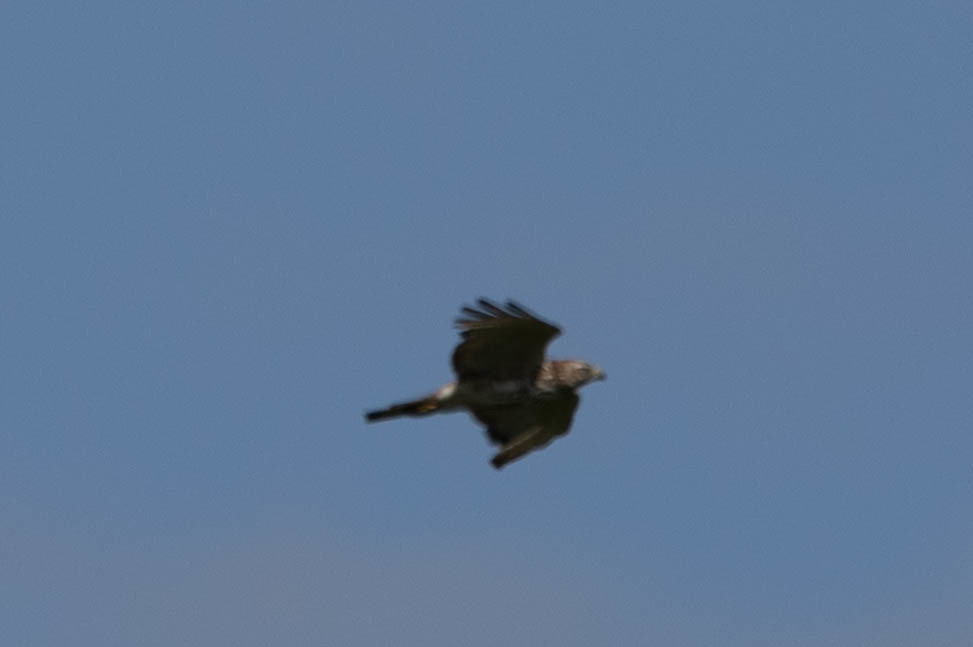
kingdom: Animalia
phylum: Chordata
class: Aves
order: Accipitriformes
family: Accipitridae
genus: Buteo
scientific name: Buteo platypterus
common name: Broad-winged hawk
